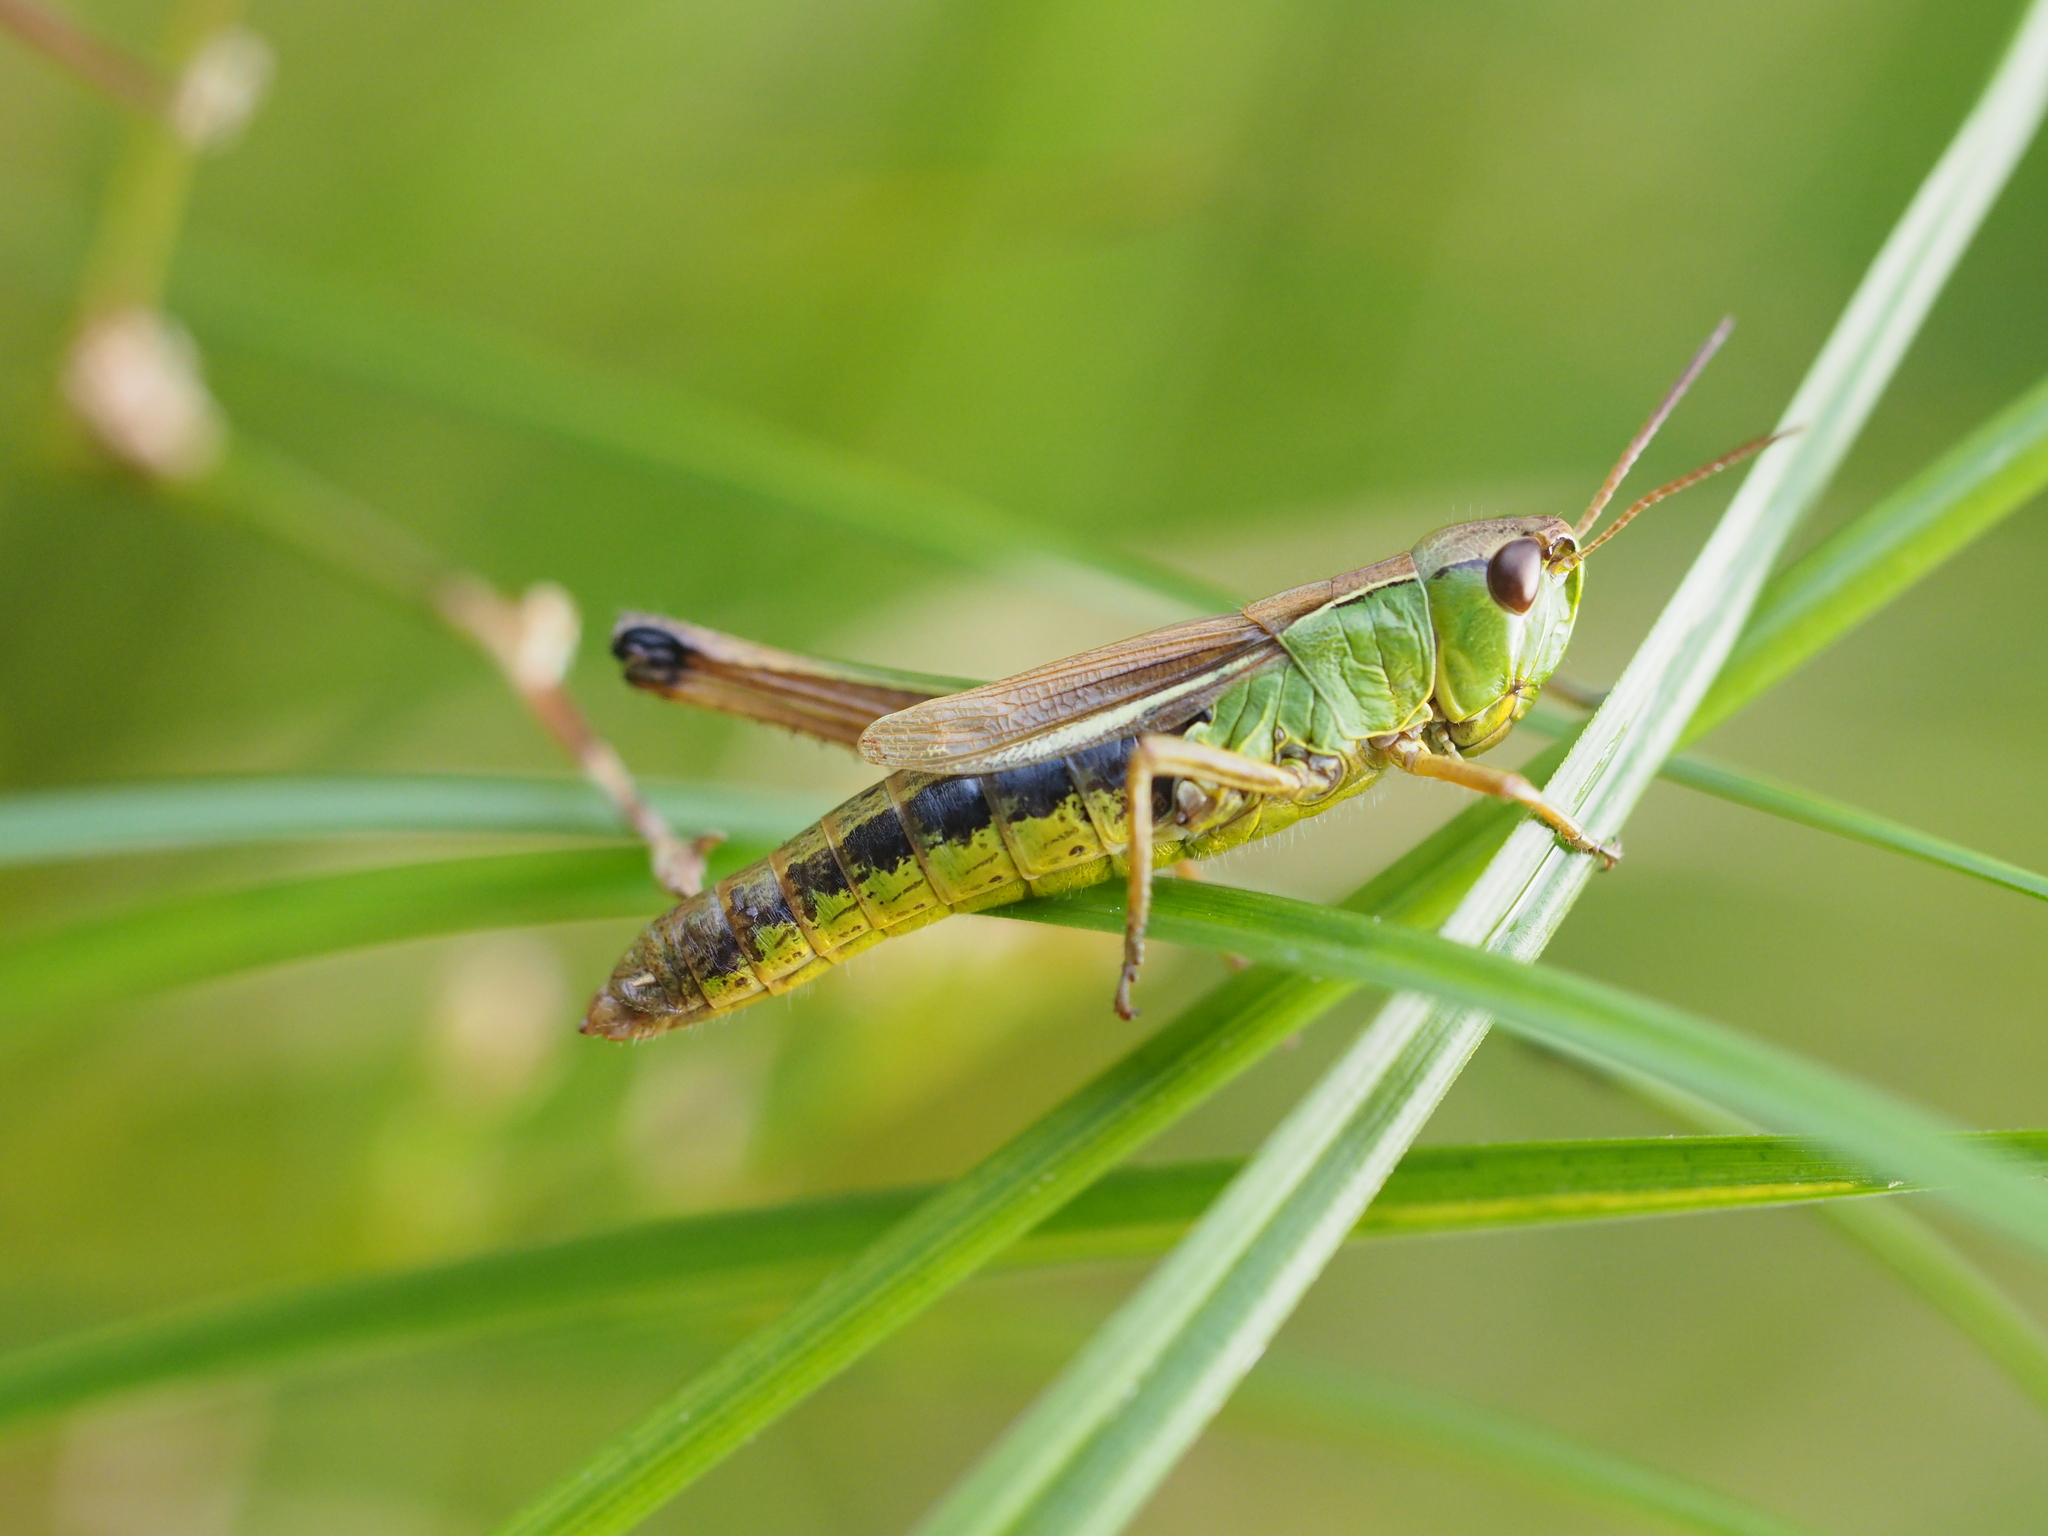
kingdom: Animalia
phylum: Arthropoda
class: Insecta
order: Orthoptera
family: Acrididae
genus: Pseudochorthippus
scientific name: Pseudochorthippus montanus
